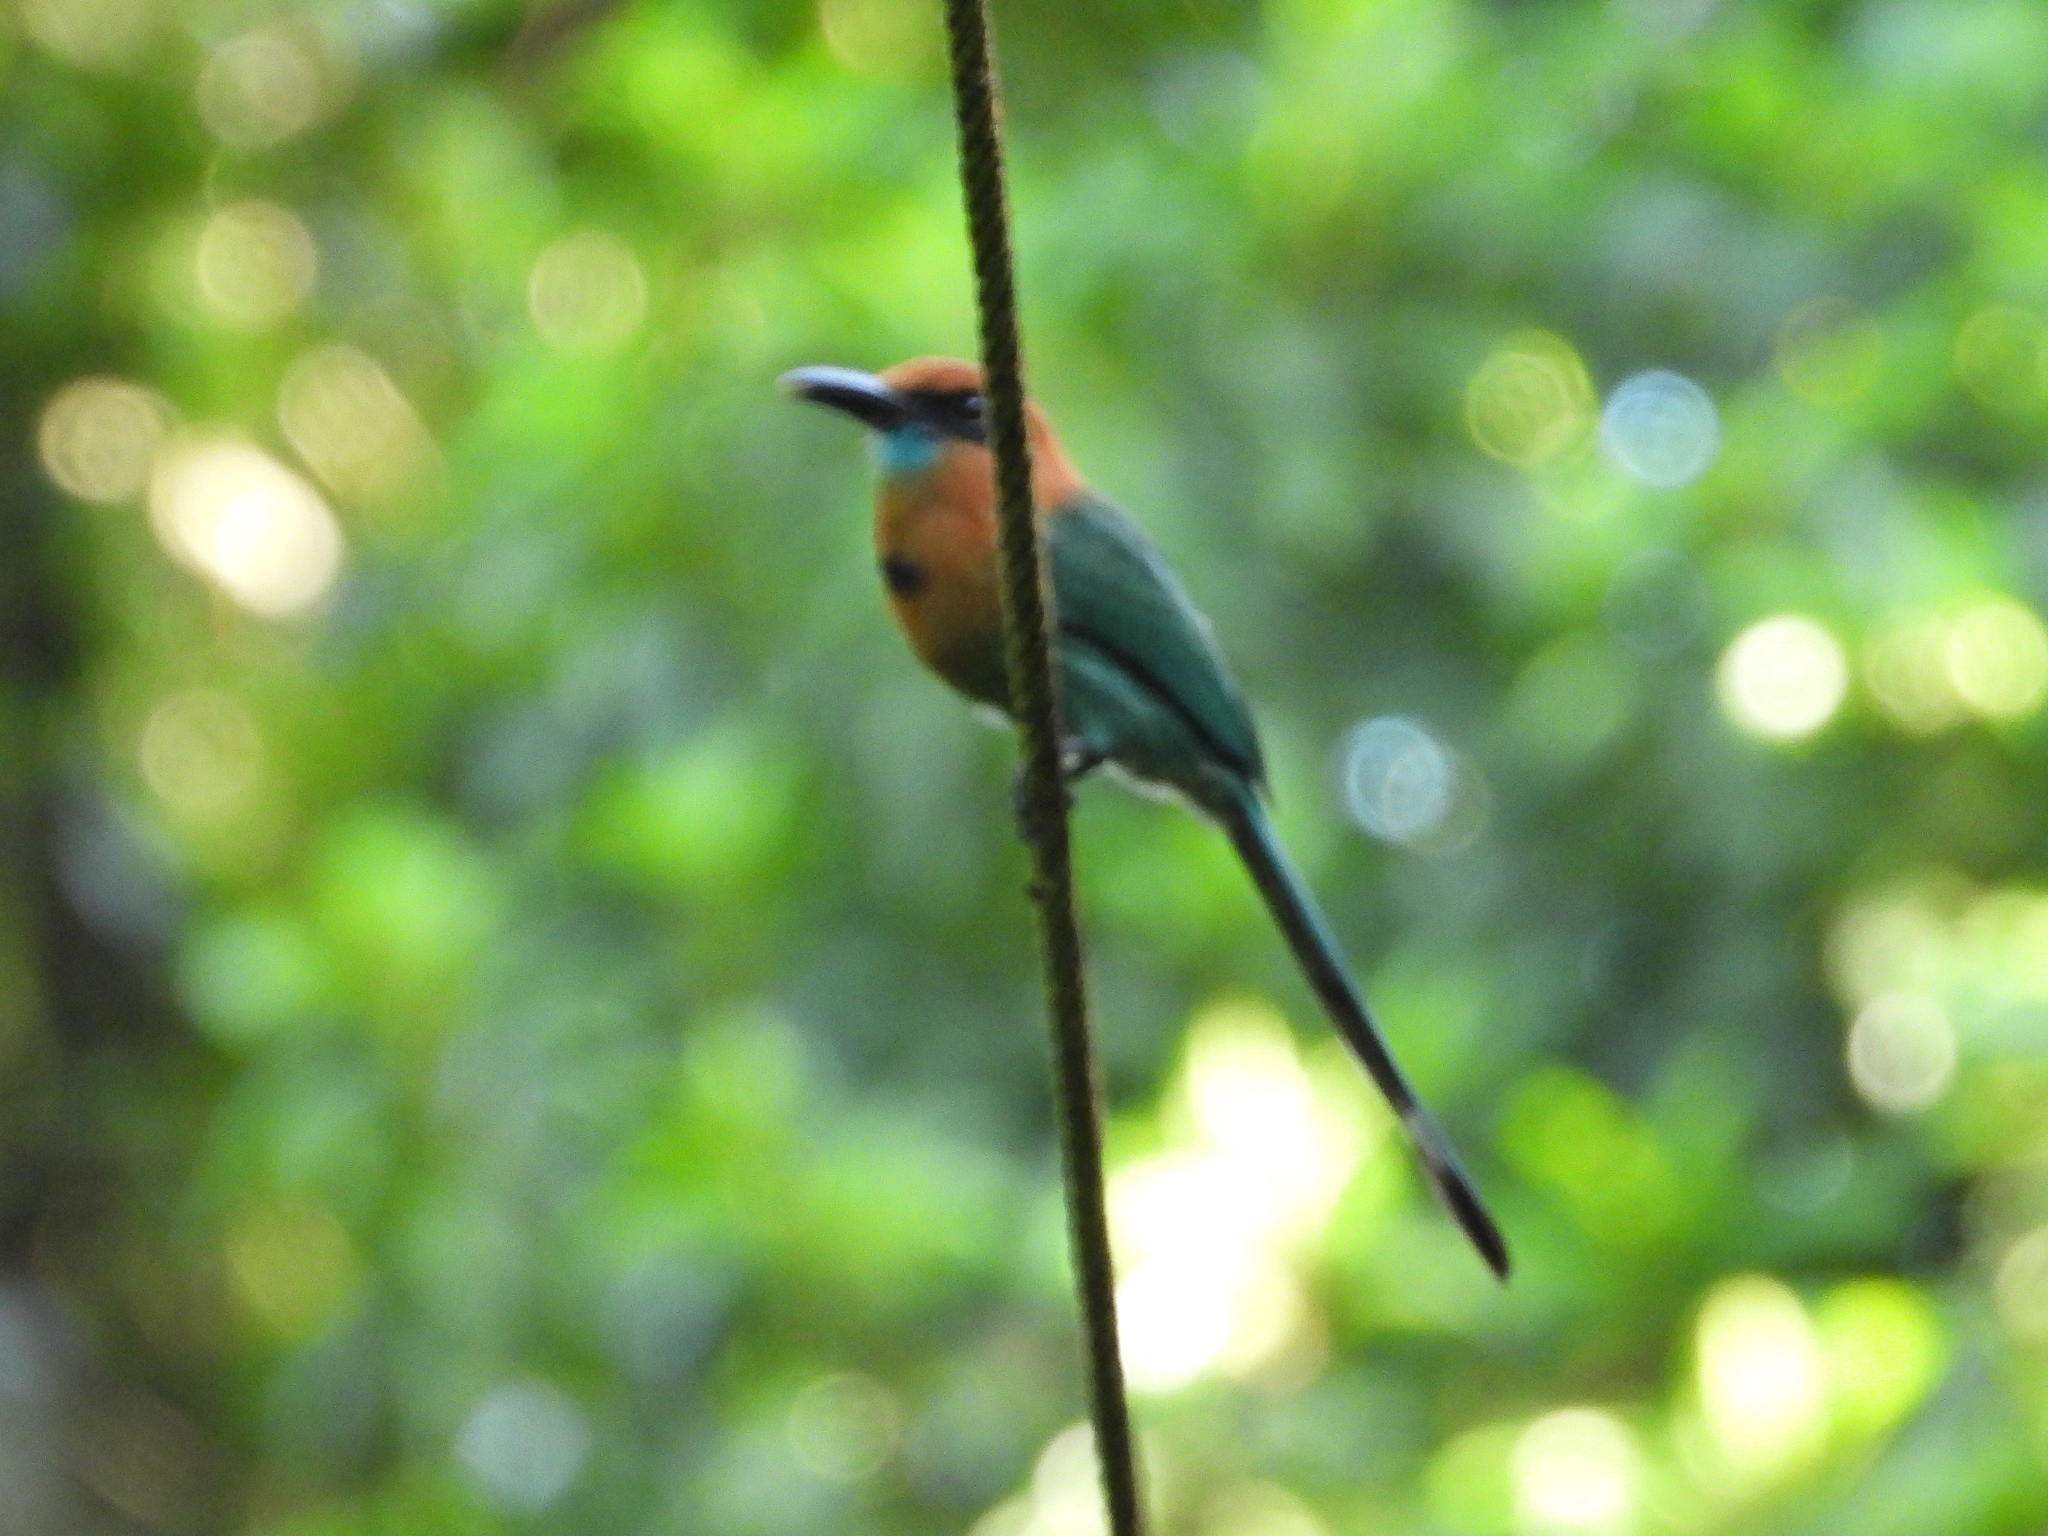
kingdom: Animalia
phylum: Chordata
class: Aves
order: Coraciiformes
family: Momotidae
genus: Electron
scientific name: Electron platyrhynchum
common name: Broad-billed motmot
